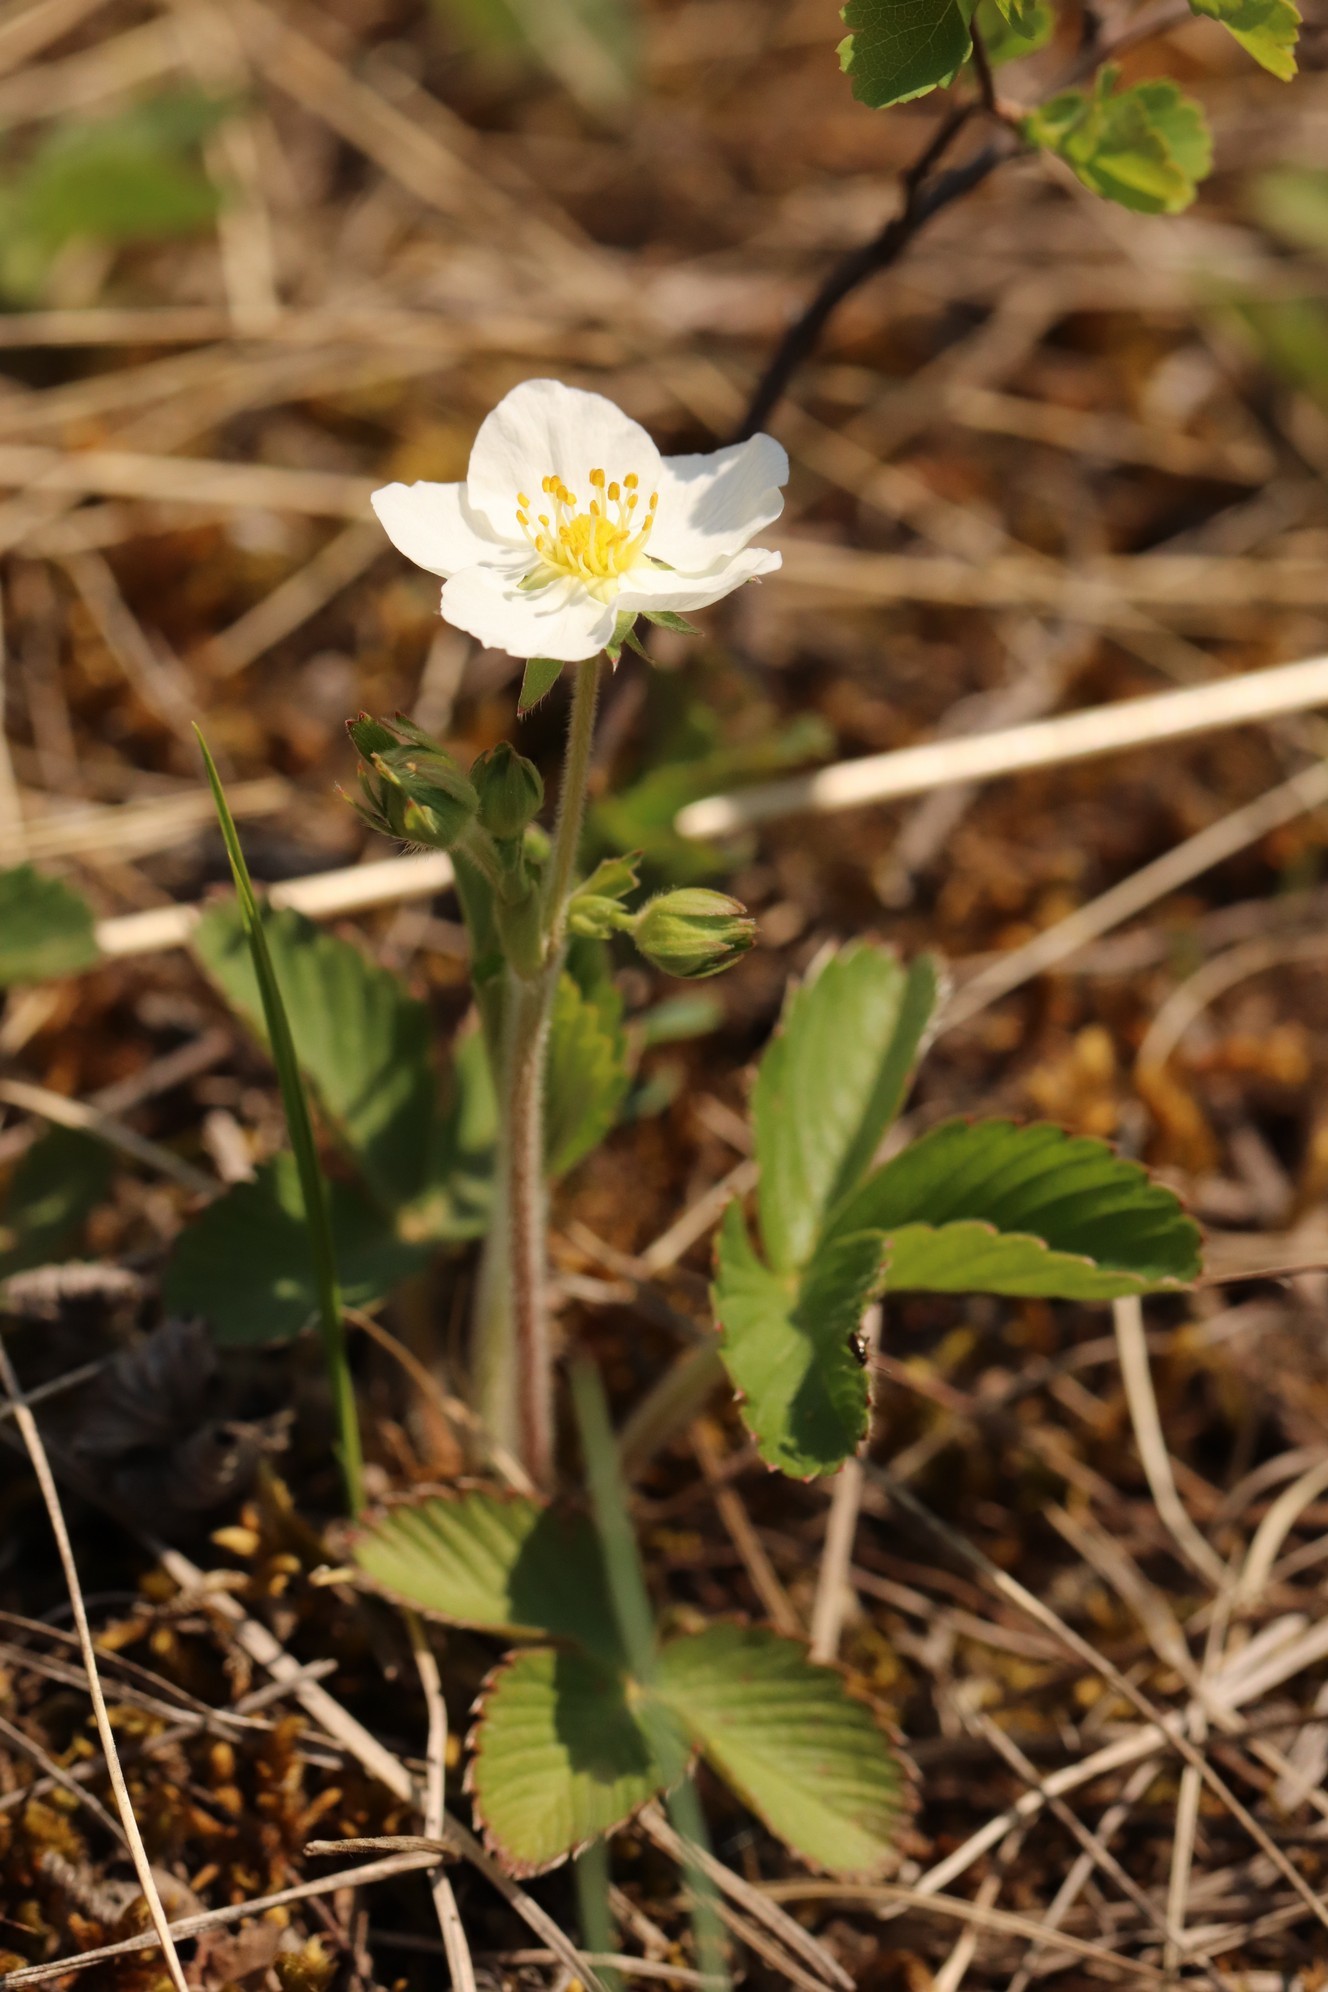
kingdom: Plantae
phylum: Tracheophyta
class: Magnoliopsida
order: Rosales
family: Rosaceae
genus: Fragaria
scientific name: Fragaria viridis
